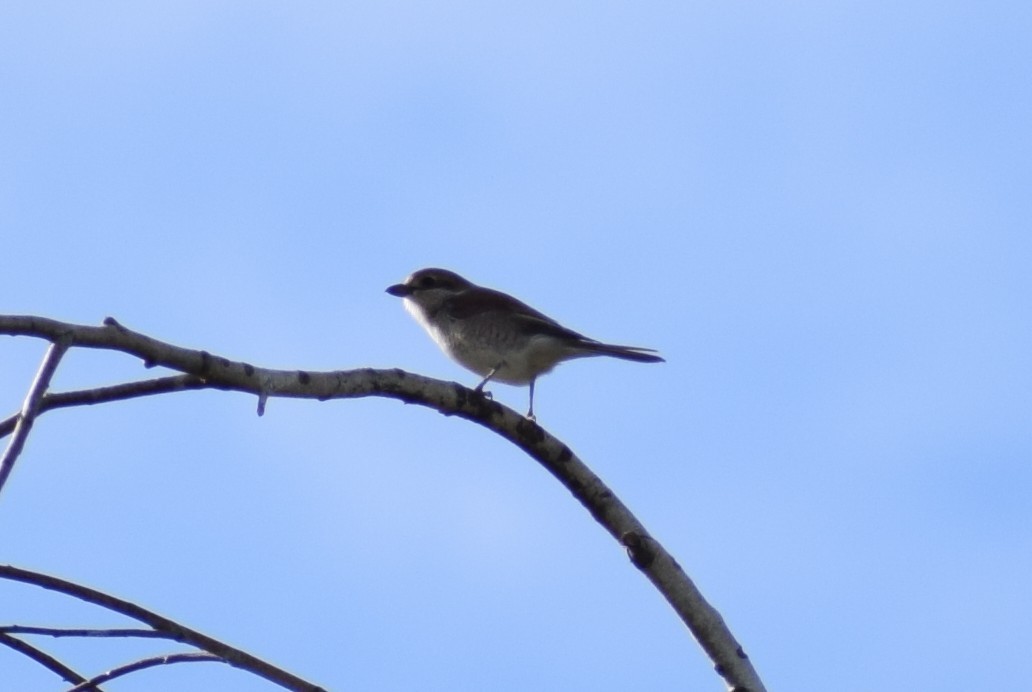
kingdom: Animalia
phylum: Chordata
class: Aves
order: Passeriformes
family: Laniidae
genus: Lanius
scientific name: Lanius collurio
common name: Red-backed shrike
